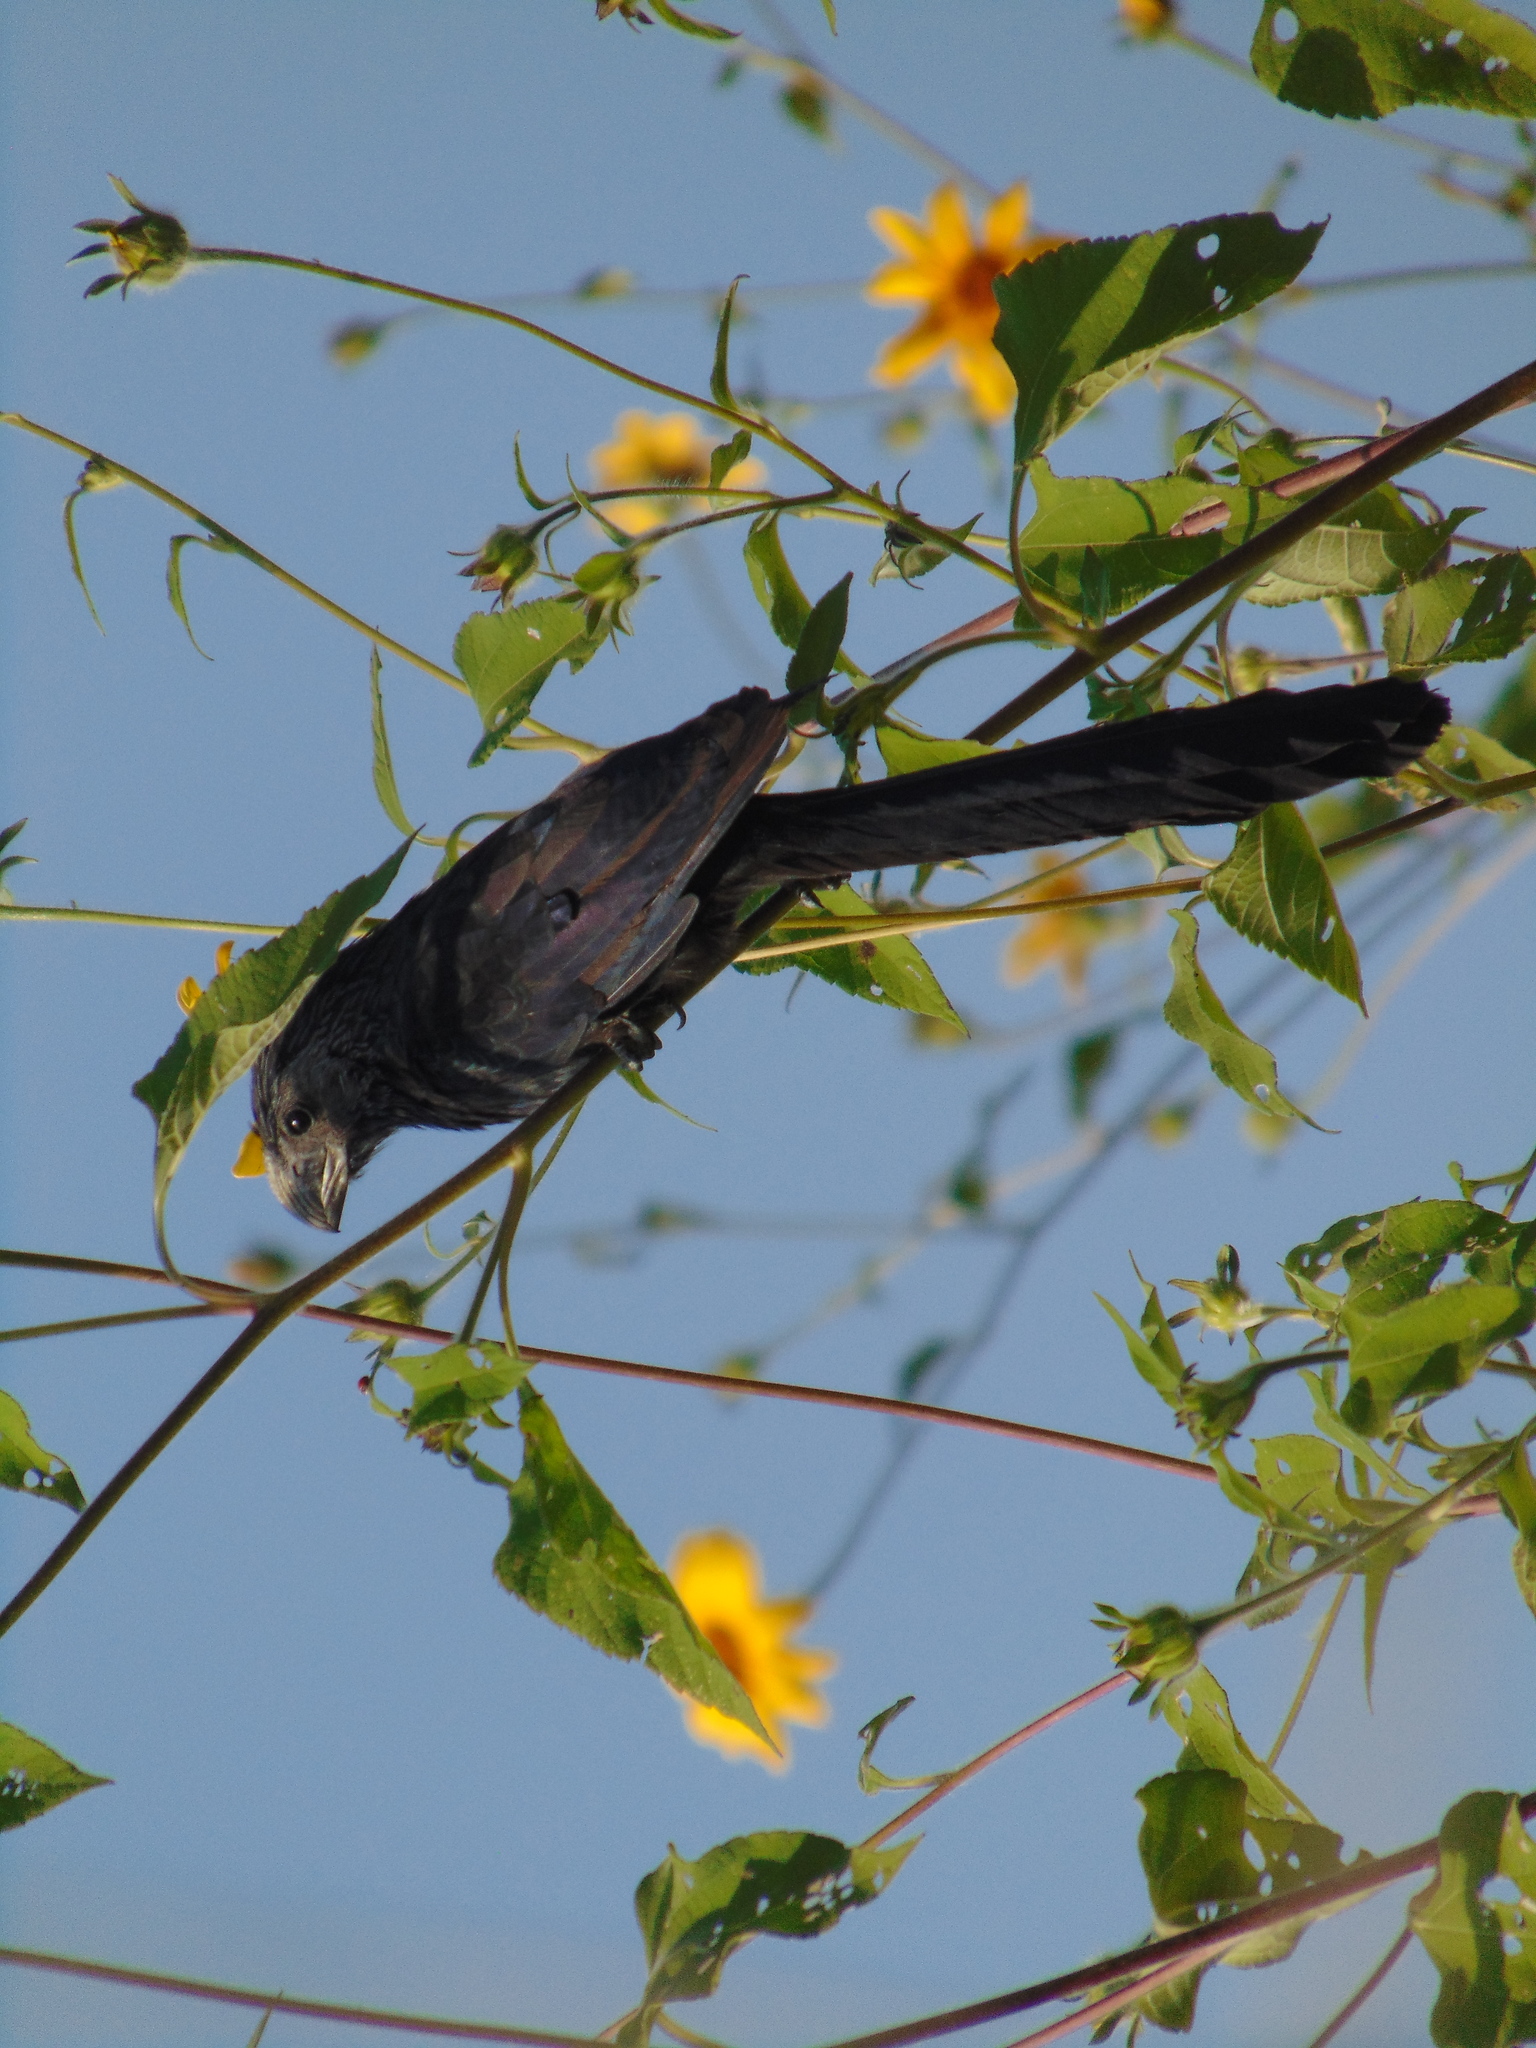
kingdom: Animalia
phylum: Chordata
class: Aves
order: Cuculiformes
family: Cuculidae
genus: Crotophaga
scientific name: Crotophaga sulcirostris
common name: Groove-billed ani
